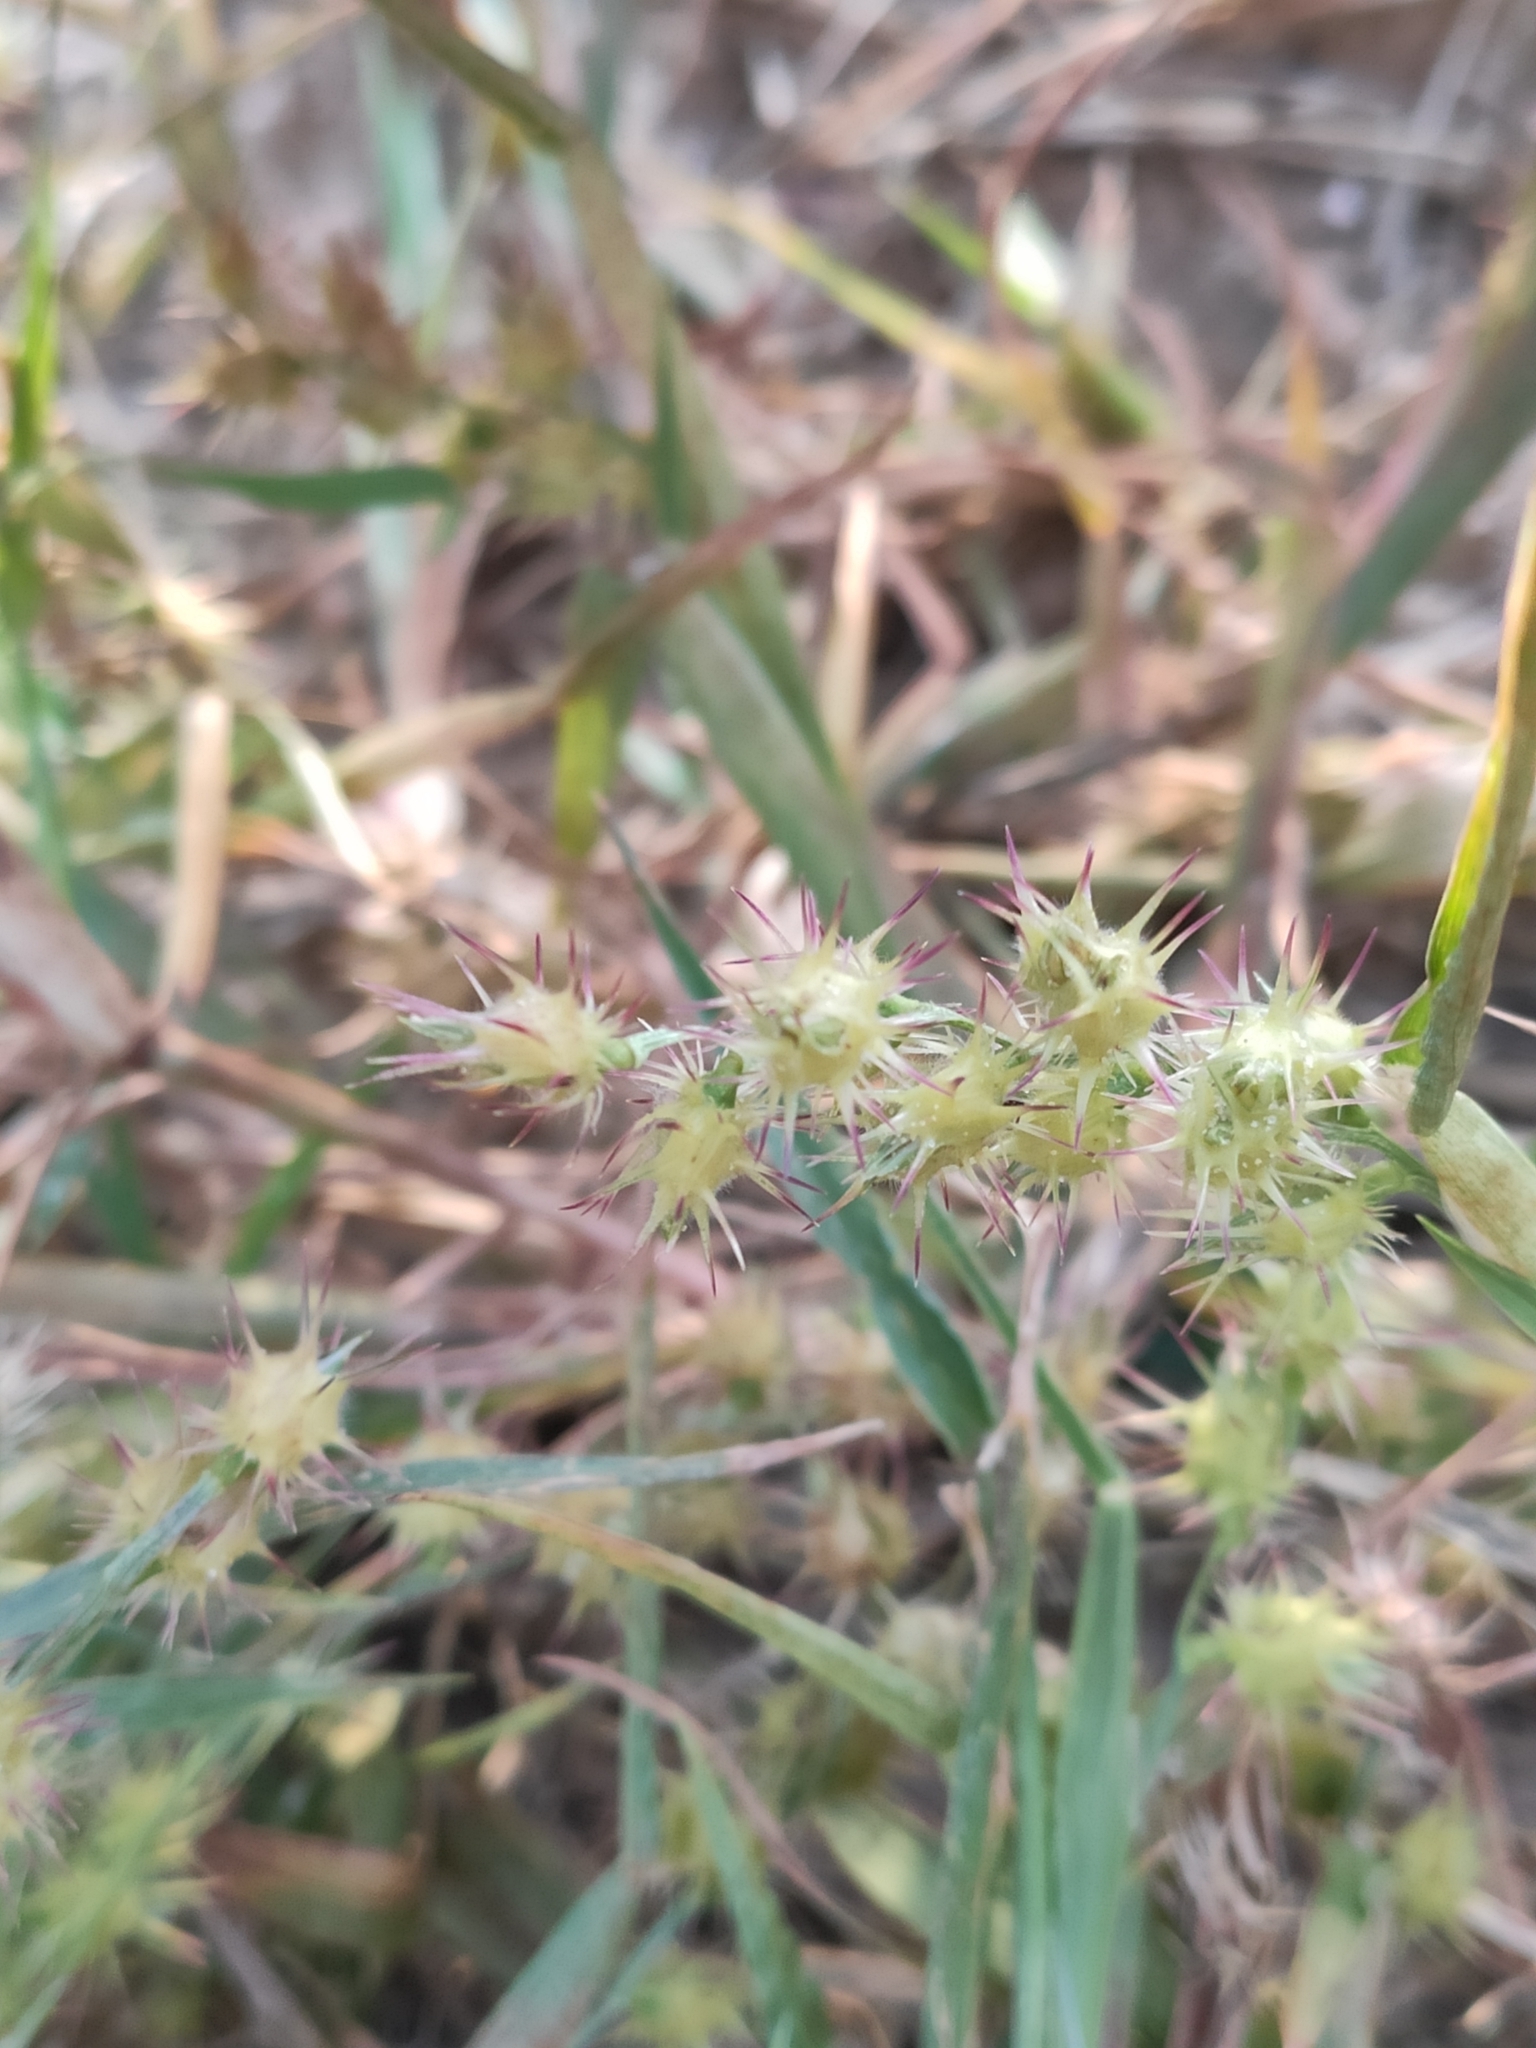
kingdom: Plantae
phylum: Tracheophyta
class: Liliopsida
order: Poales
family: Poaceae
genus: Cenchrus
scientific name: Cenchrus longispinus
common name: Mat sandbur
